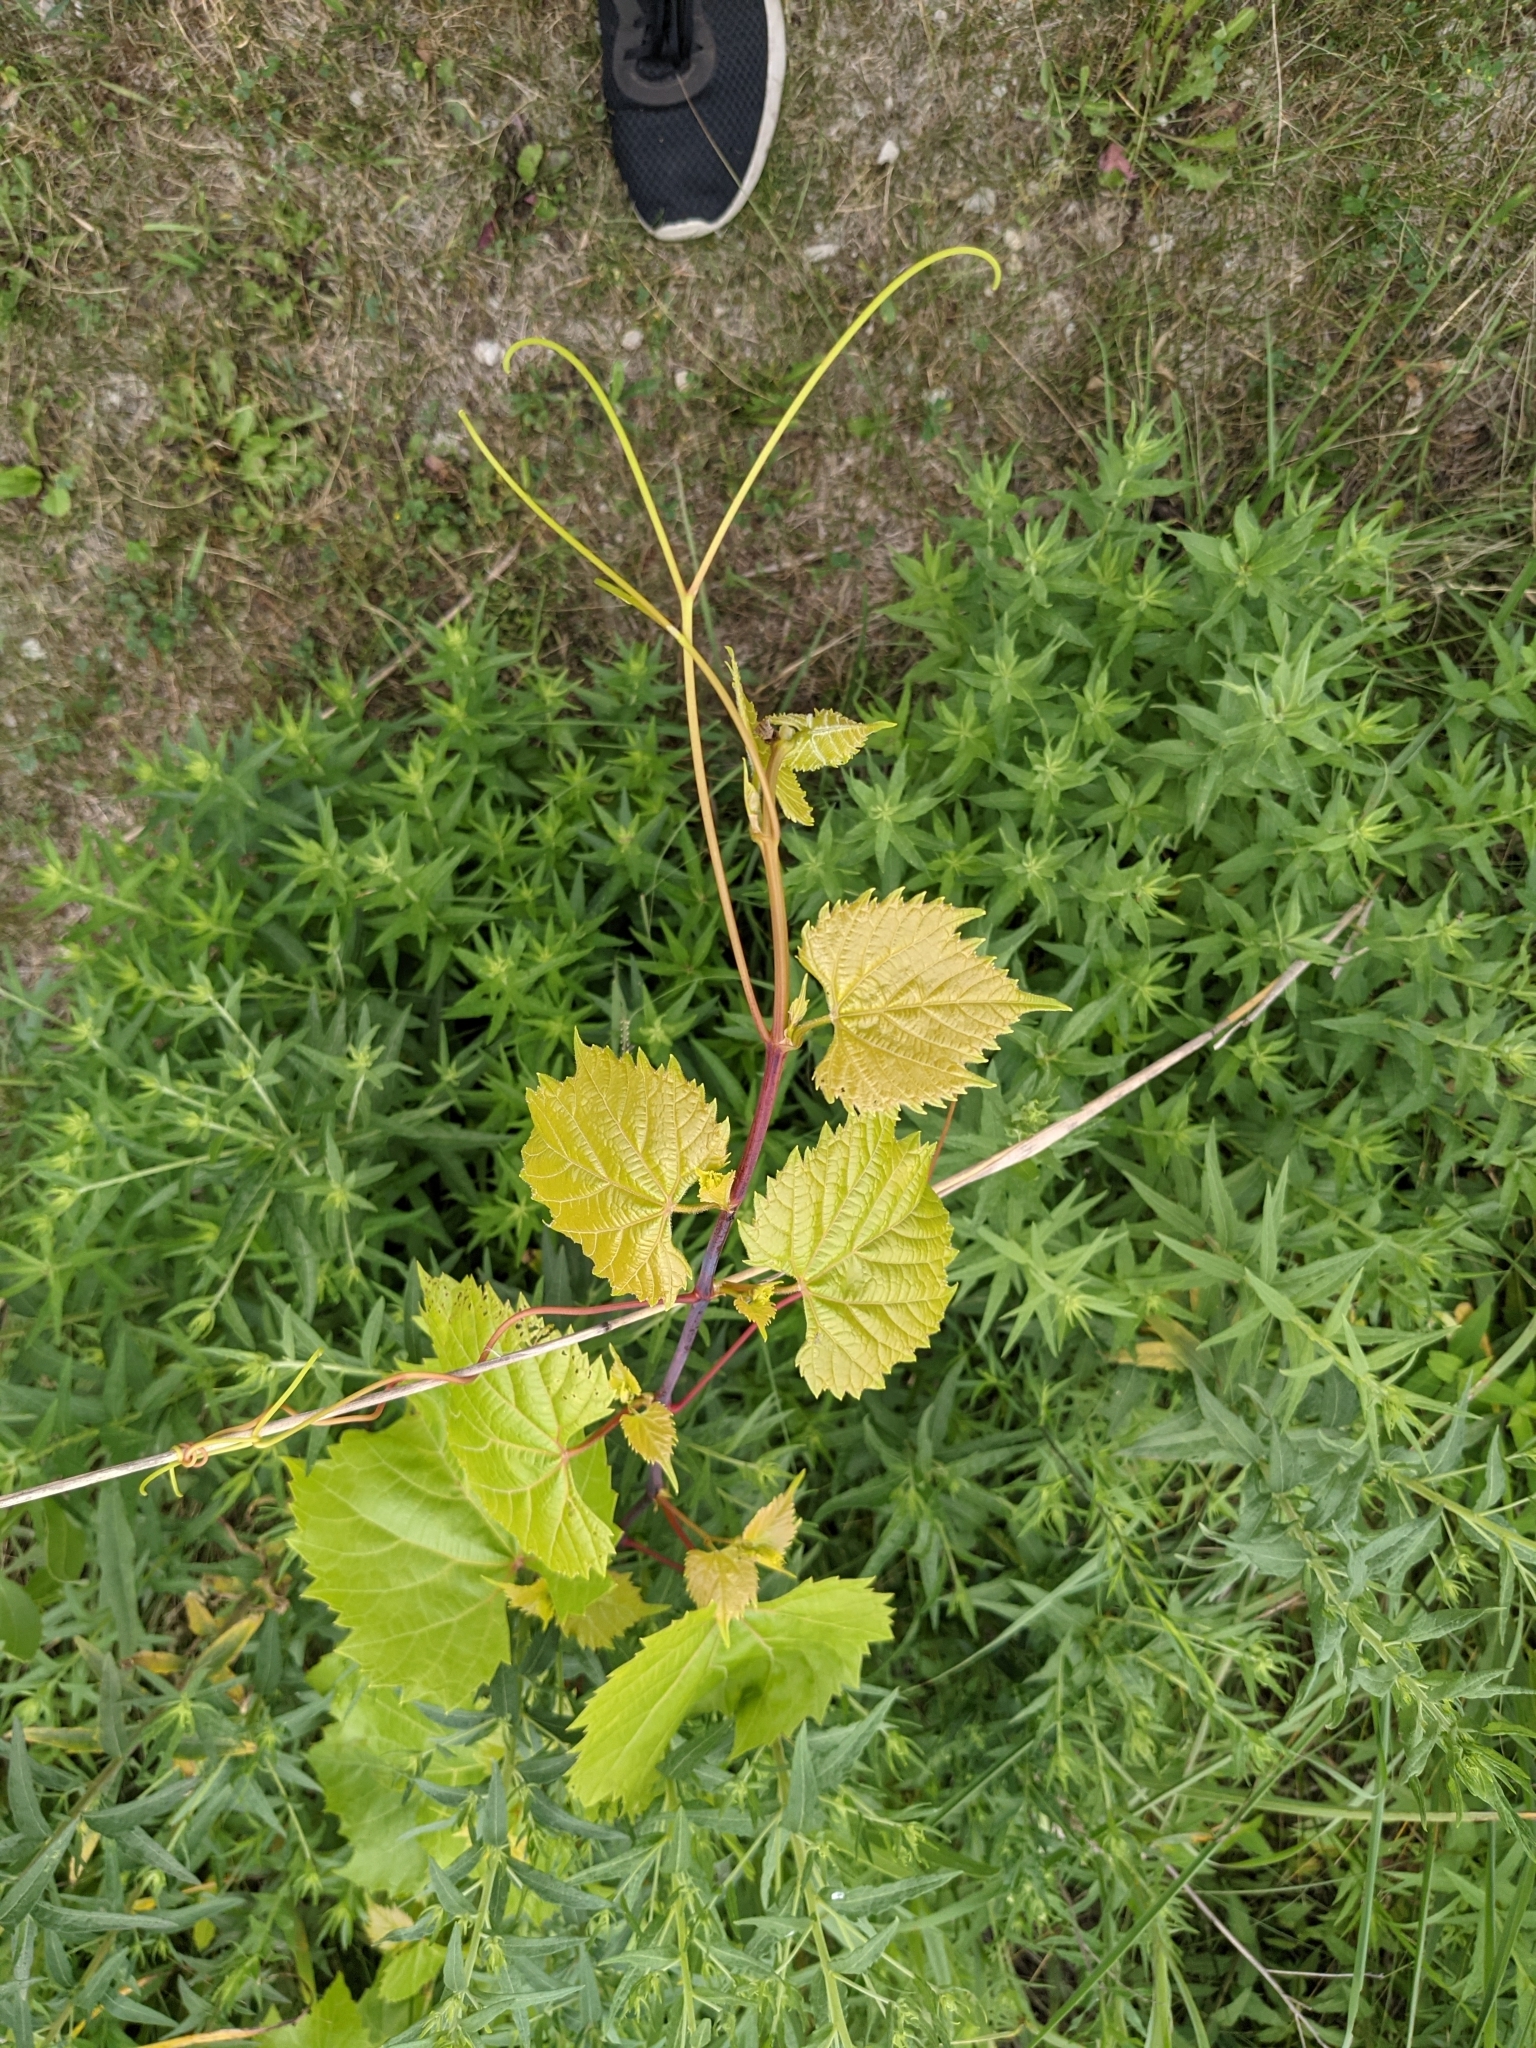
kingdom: Plantae
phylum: Tracheophyta
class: Magnoliopsida
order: Vitales
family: Vitaceae
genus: Vitis
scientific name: Vitis riparia
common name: Frost grape
